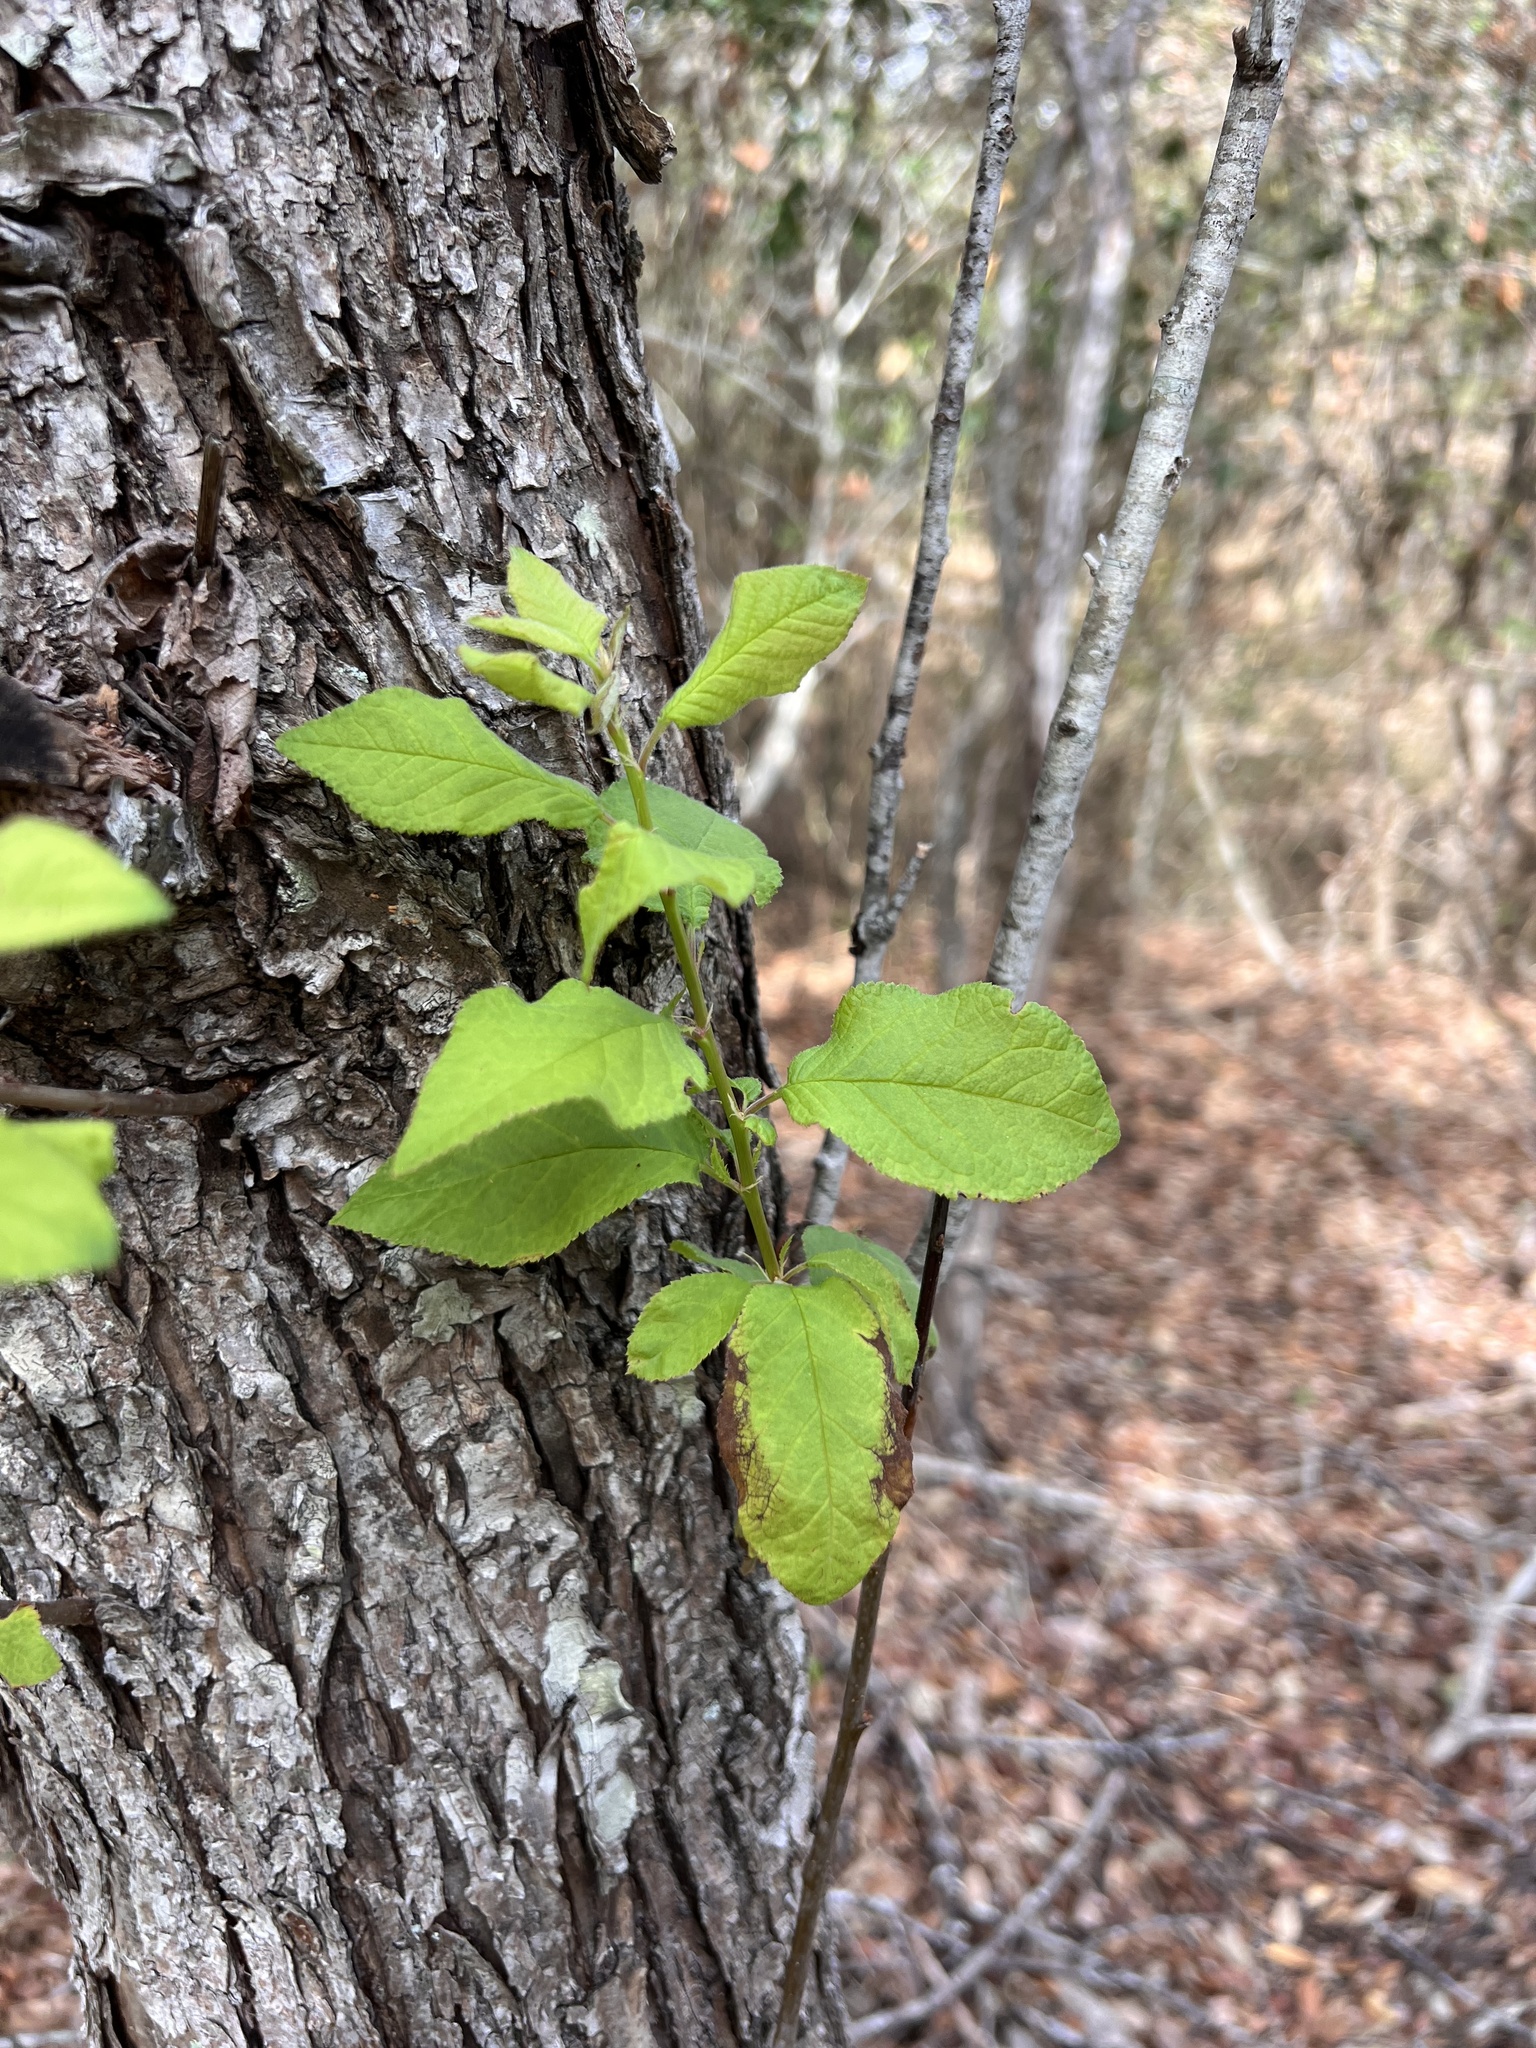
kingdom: Plantae
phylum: Tracheophyta
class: Magnoliopsida
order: Rosales
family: Rosaceae
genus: Prunus
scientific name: Prunus mexicana
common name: Mexican plum
